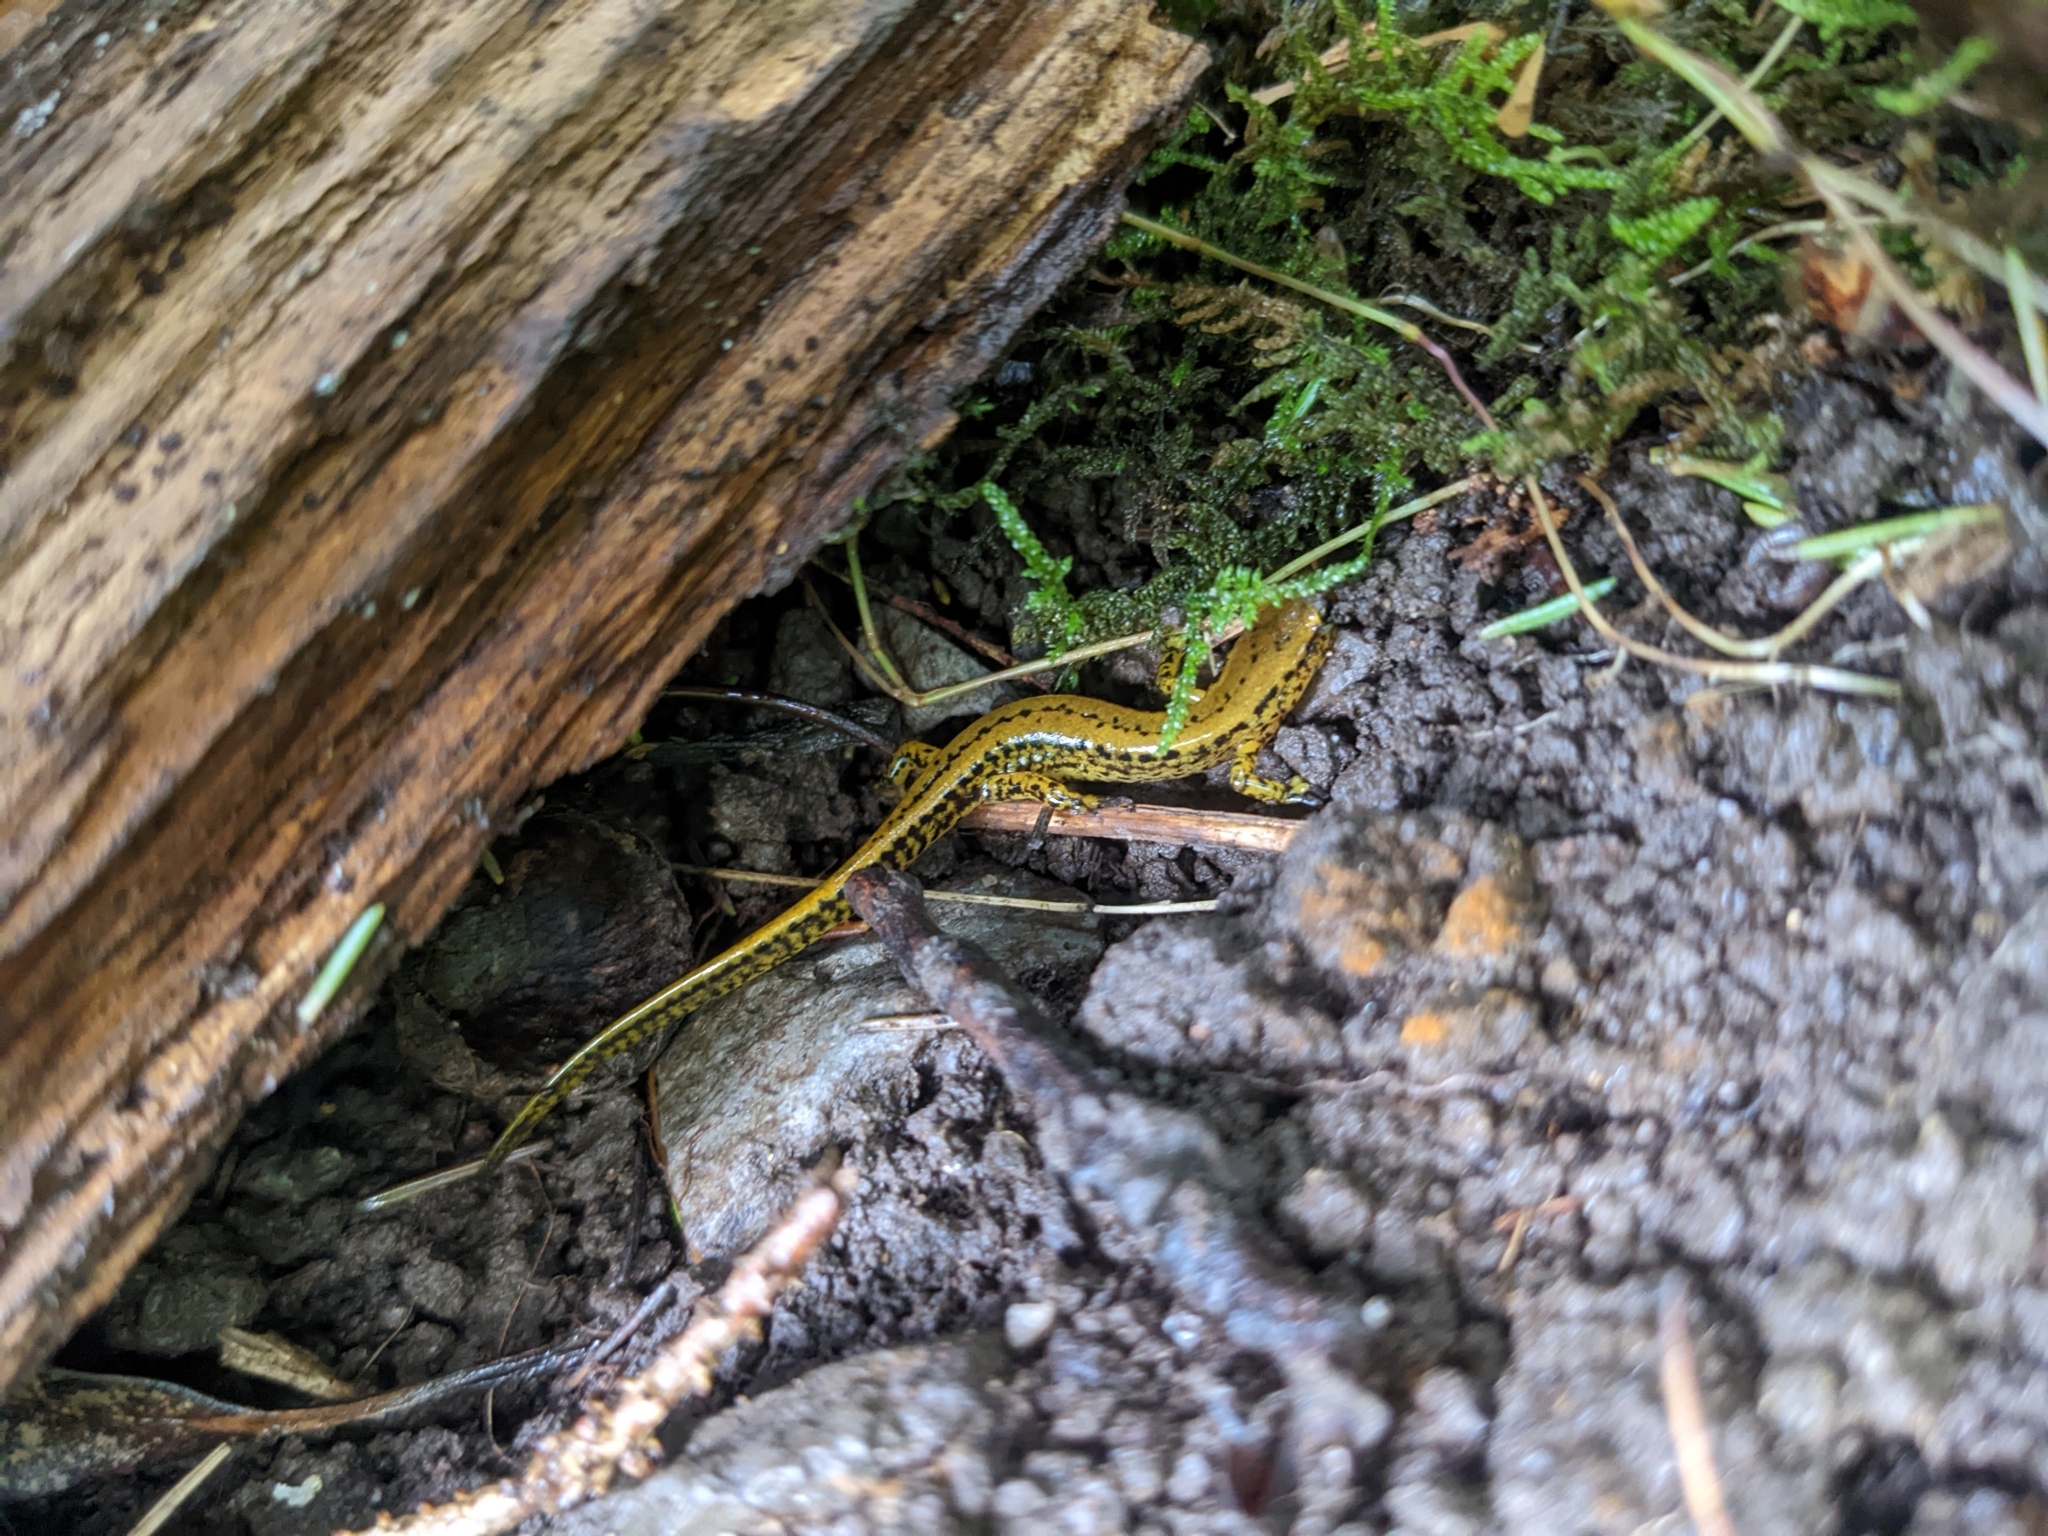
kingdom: Animalia
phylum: Chordata
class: Amphibia
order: Caudata
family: Plethodontidae
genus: Eurycea
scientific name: Eurycea longicauda
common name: Long-tailed salamander
